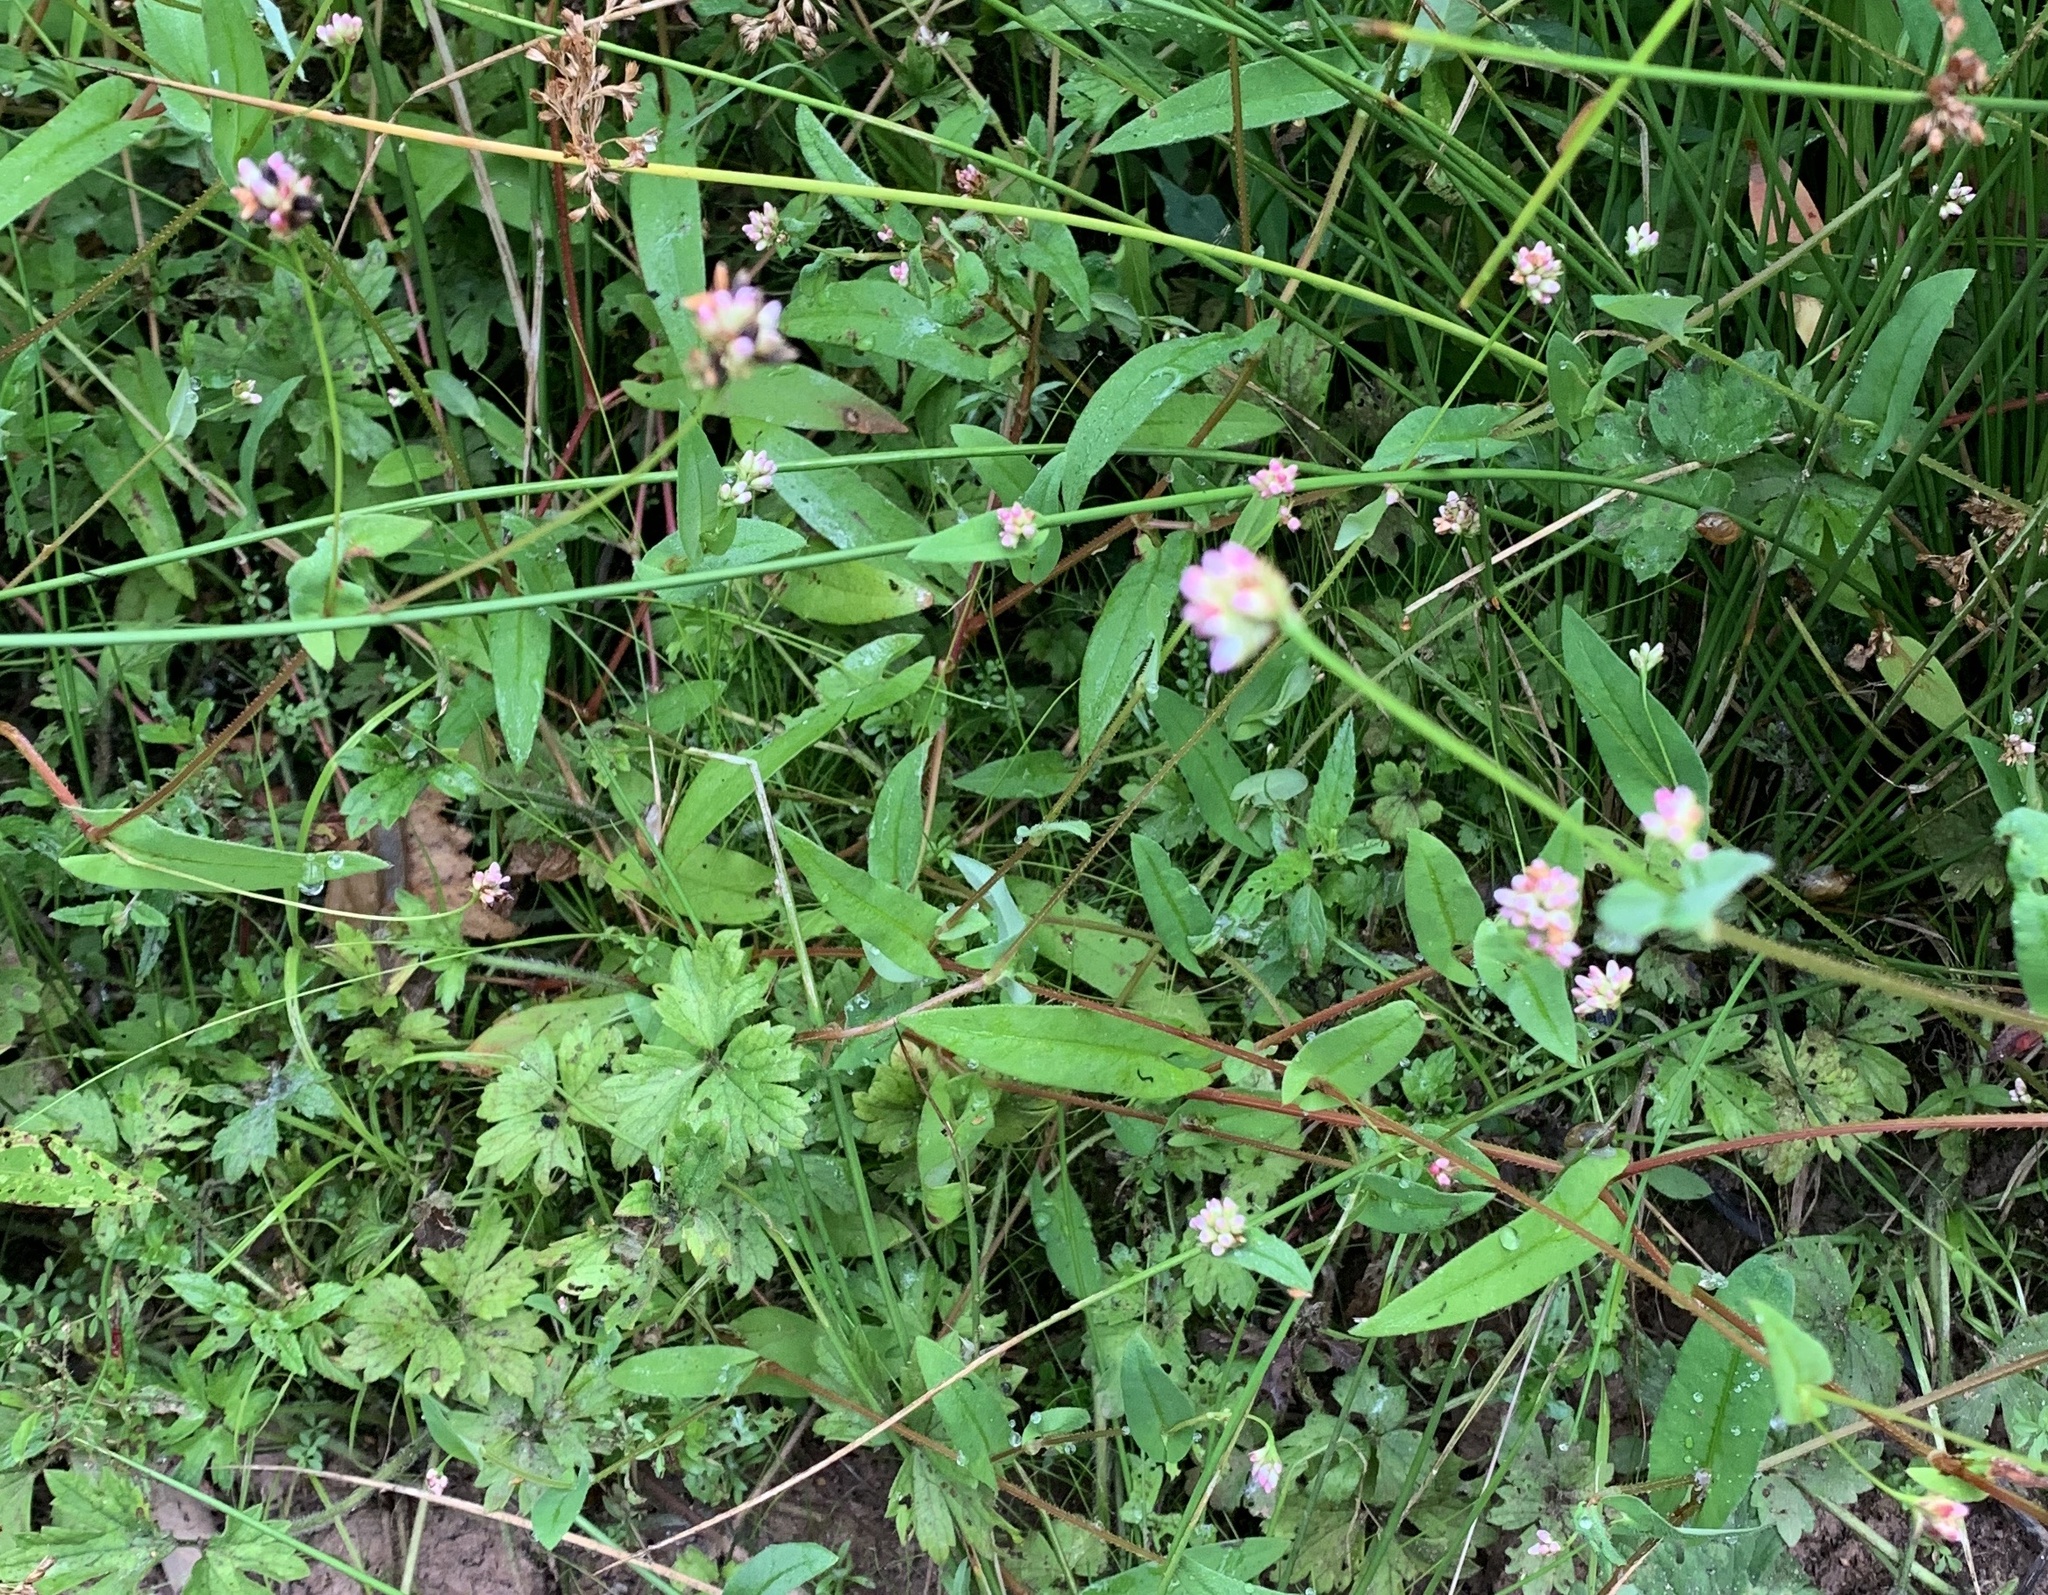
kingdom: Plantae
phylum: Tracheophyta
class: Magnoliopsida
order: Caryophyllales
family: Polygonaceae
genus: Persicaria
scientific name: Persicaria sagittata
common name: American tearthumb
